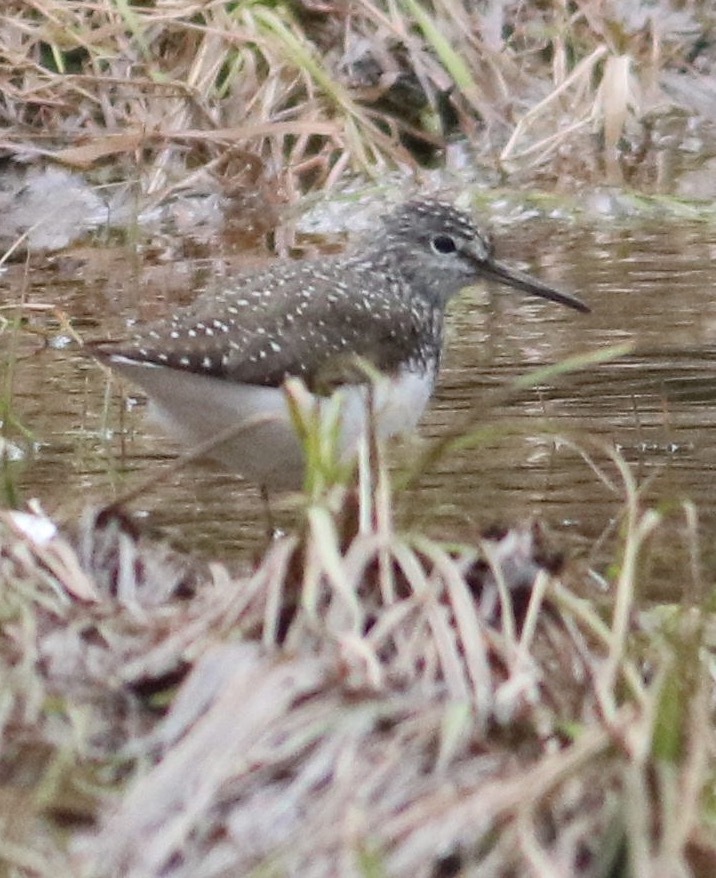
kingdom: Animalia
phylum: Chordata
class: Aves
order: Charadriiformes
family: Scolopacidae
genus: Tringa
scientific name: Tringa ochropus
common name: Green sandpiper
